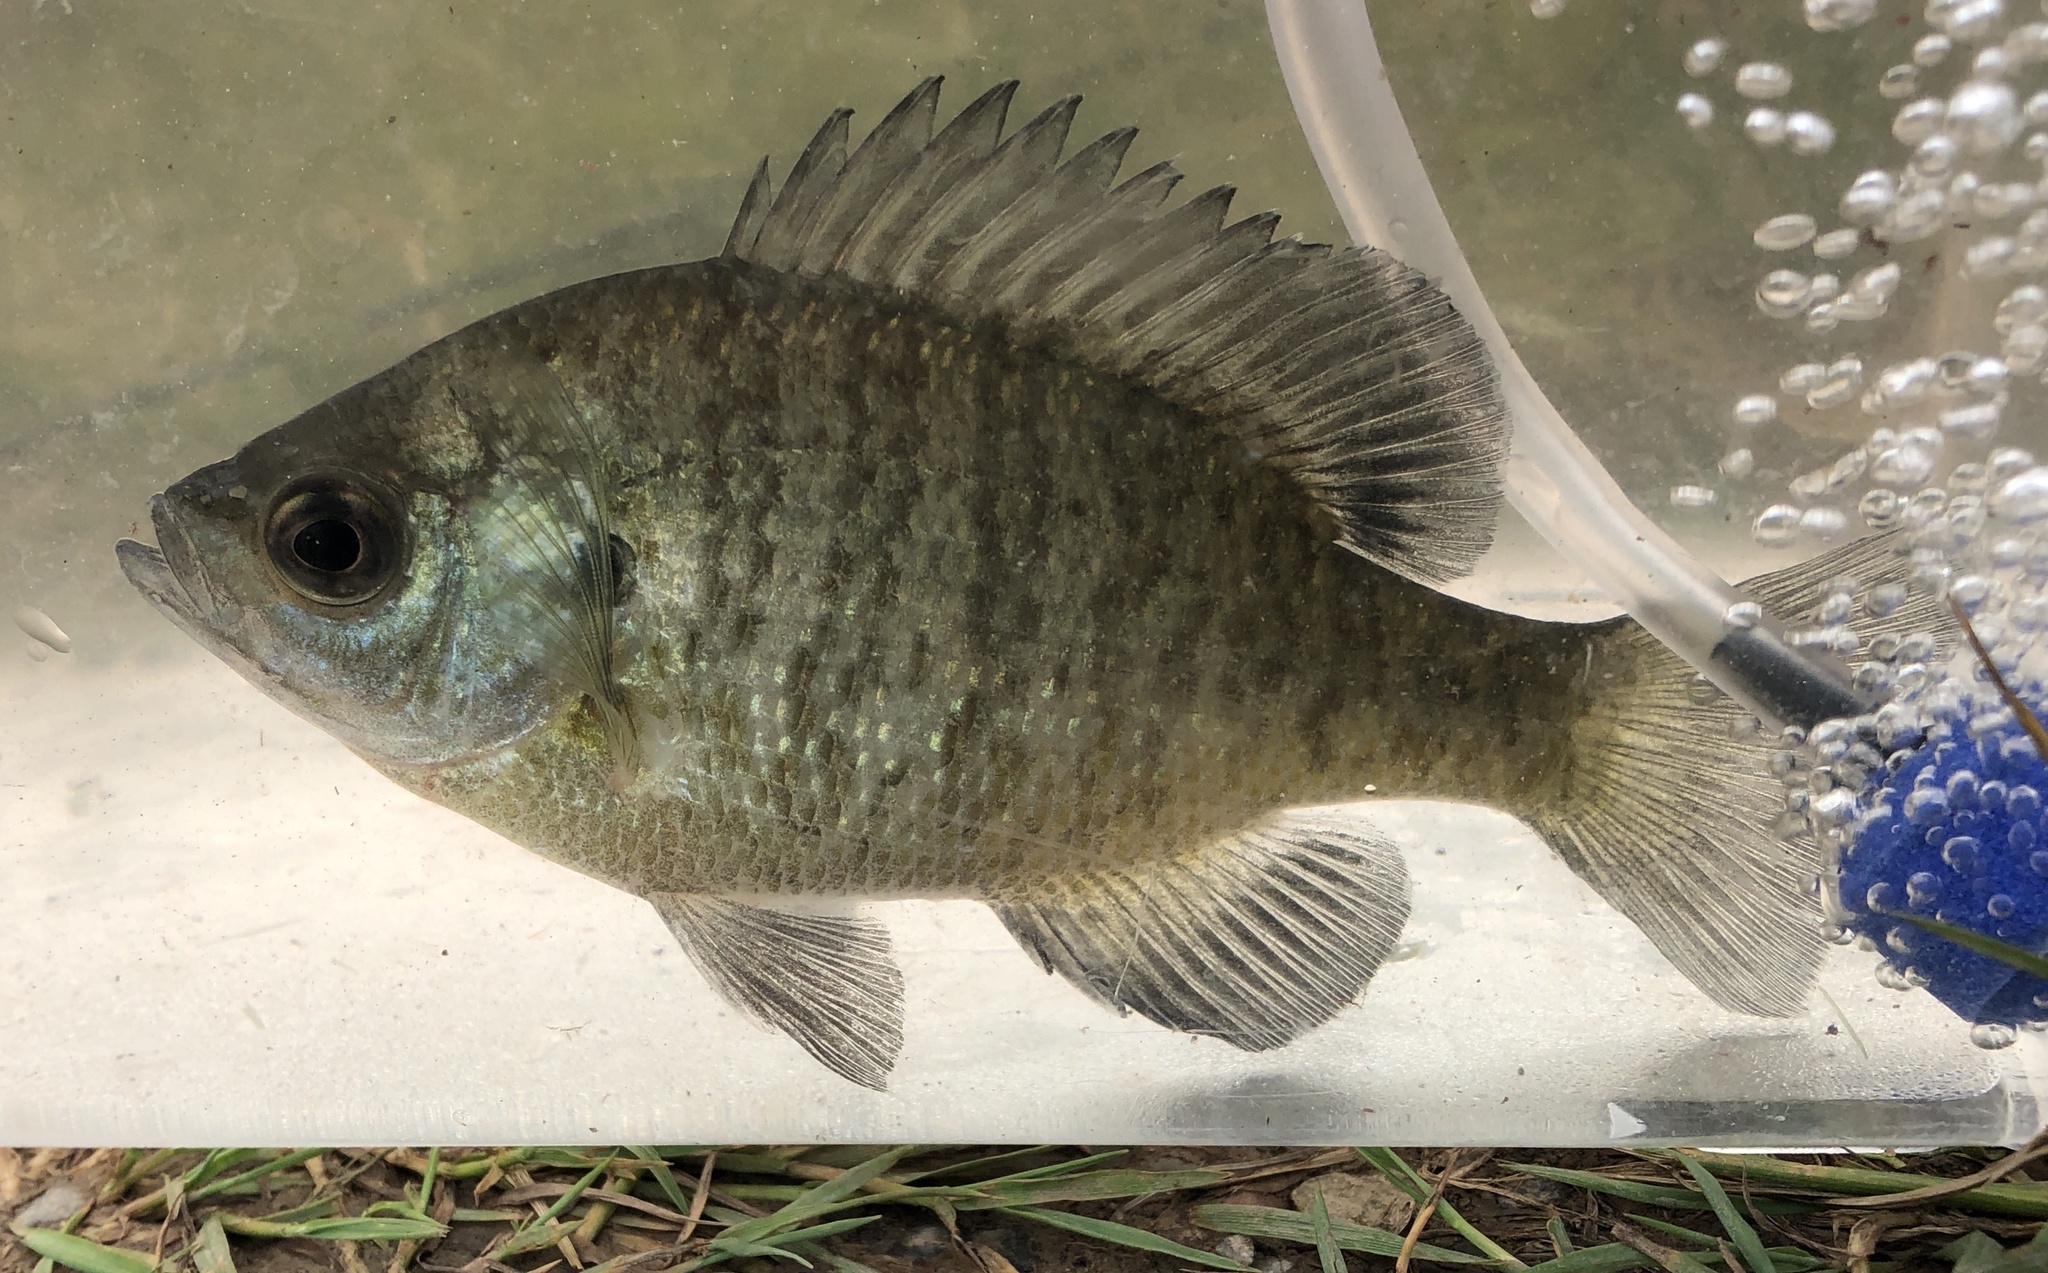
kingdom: Animalia
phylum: Chordata
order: Perciformes
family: Centrarchidae
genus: Lepomis
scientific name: Lepomis macrochirus
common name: Bluegill
